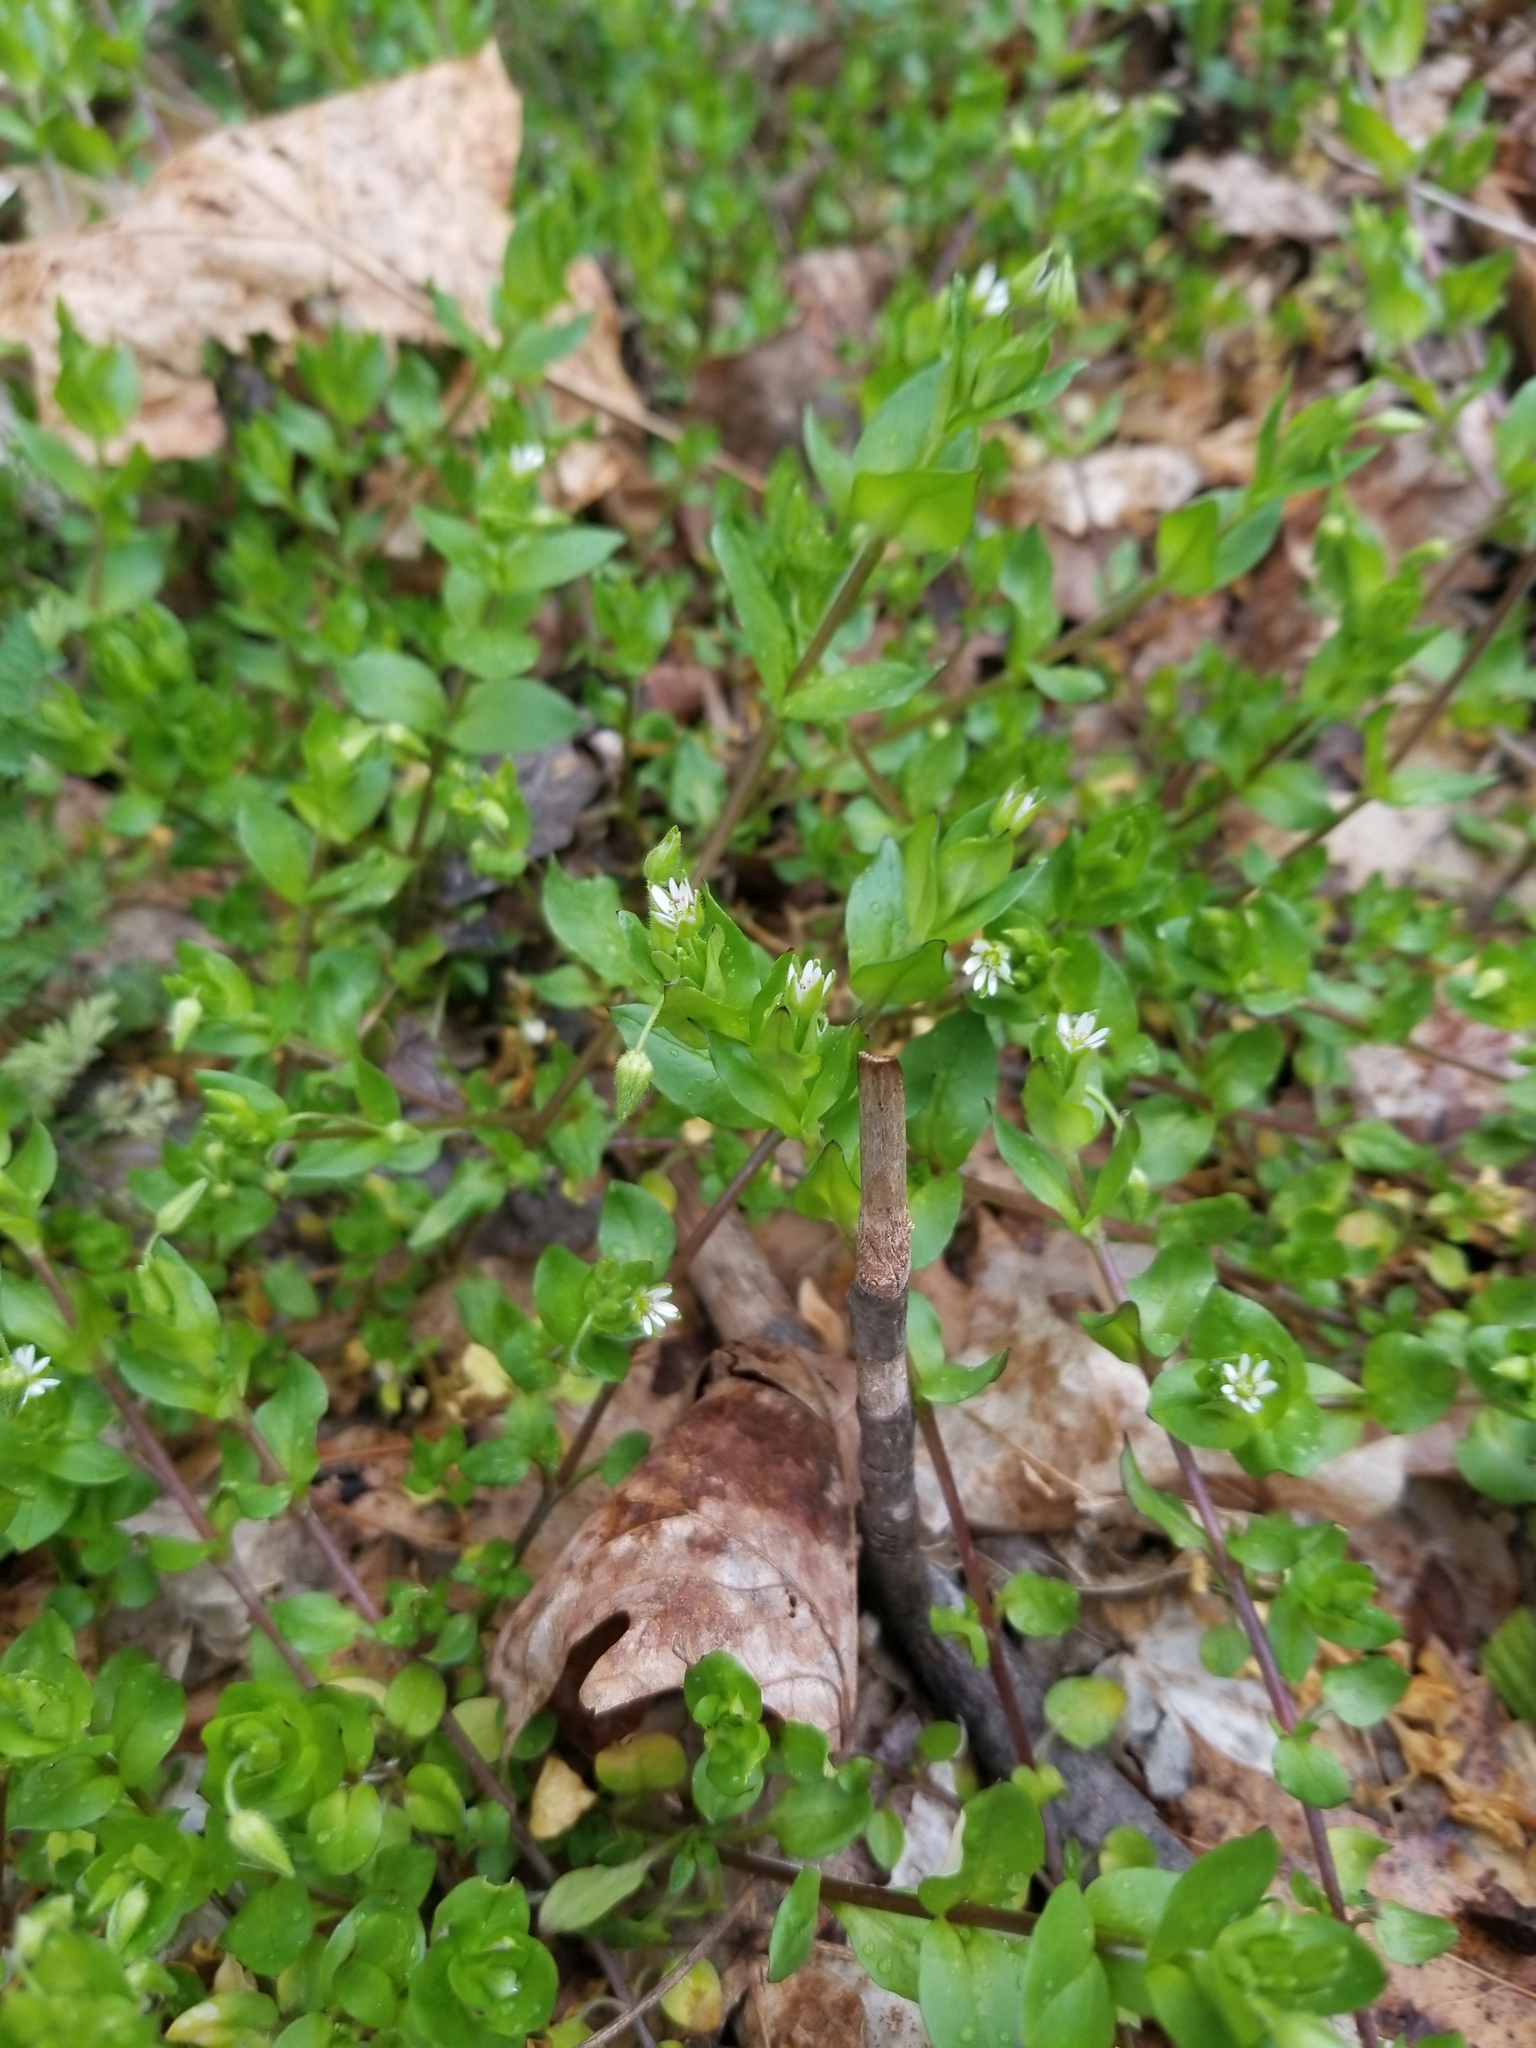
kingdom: Plantae
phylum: Tracheophyta
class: Magnoliopsida
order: Caryophyllales
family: Caryophyllaceae
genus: Stellaria
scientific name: Stellaria media
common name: Common chickweed
